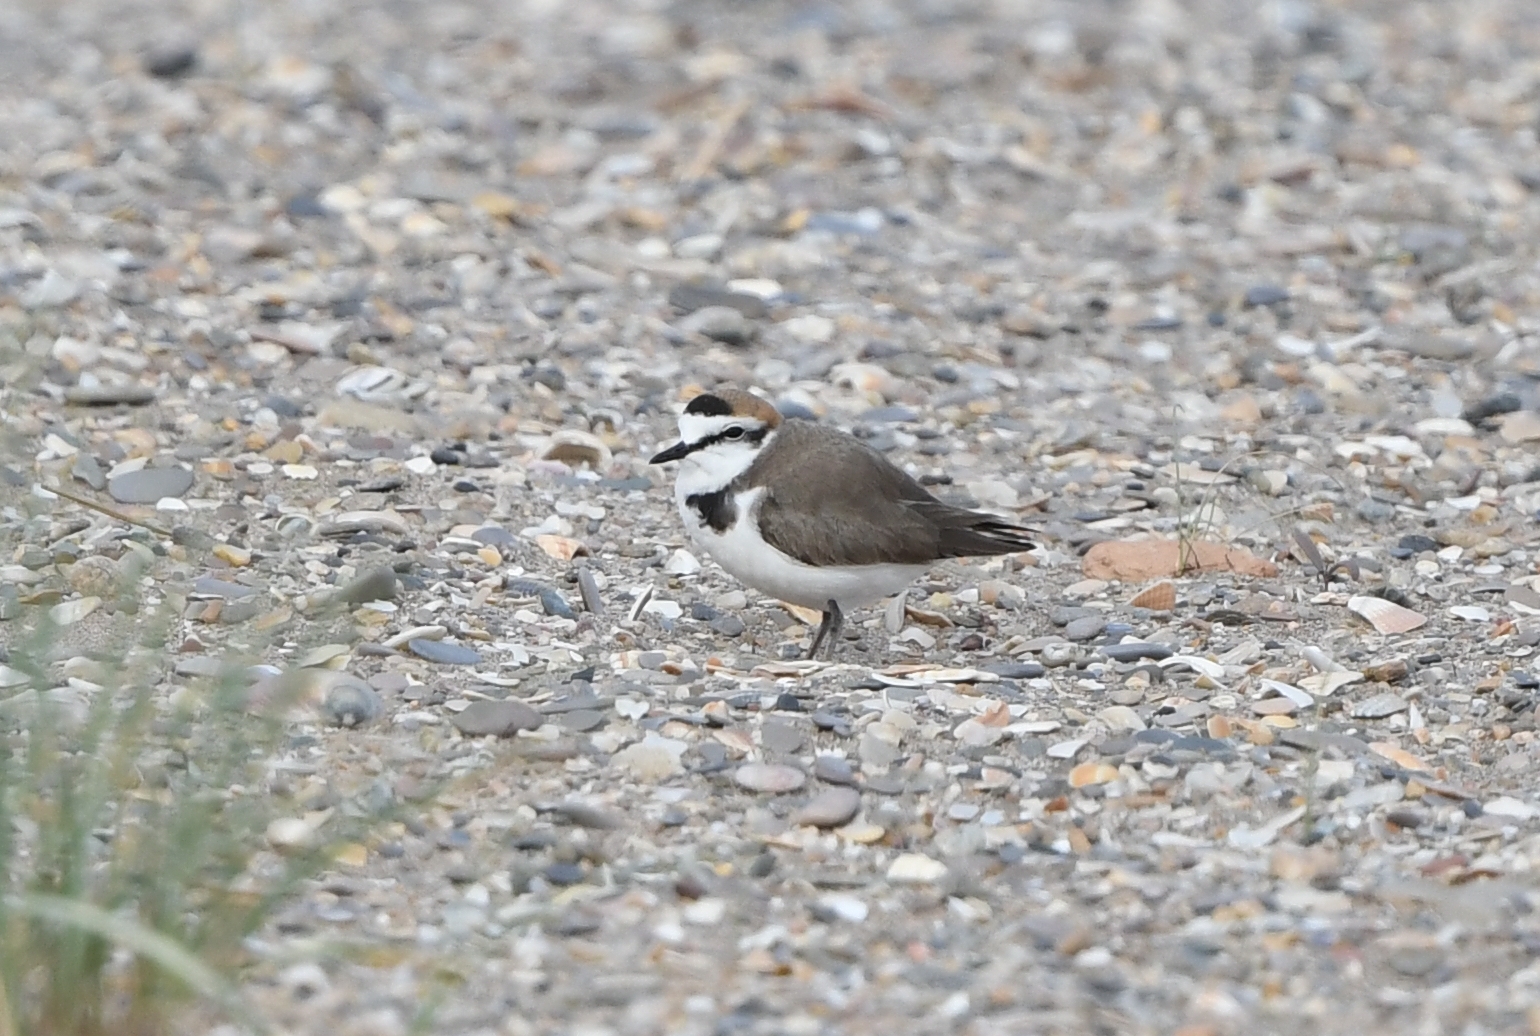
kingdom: Animalia
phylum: Chordata
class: Aves
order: Charadriiformes
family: Charadriidae
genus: Charadrius
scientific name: Charadrius alexandrinus
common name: Kentish plover
